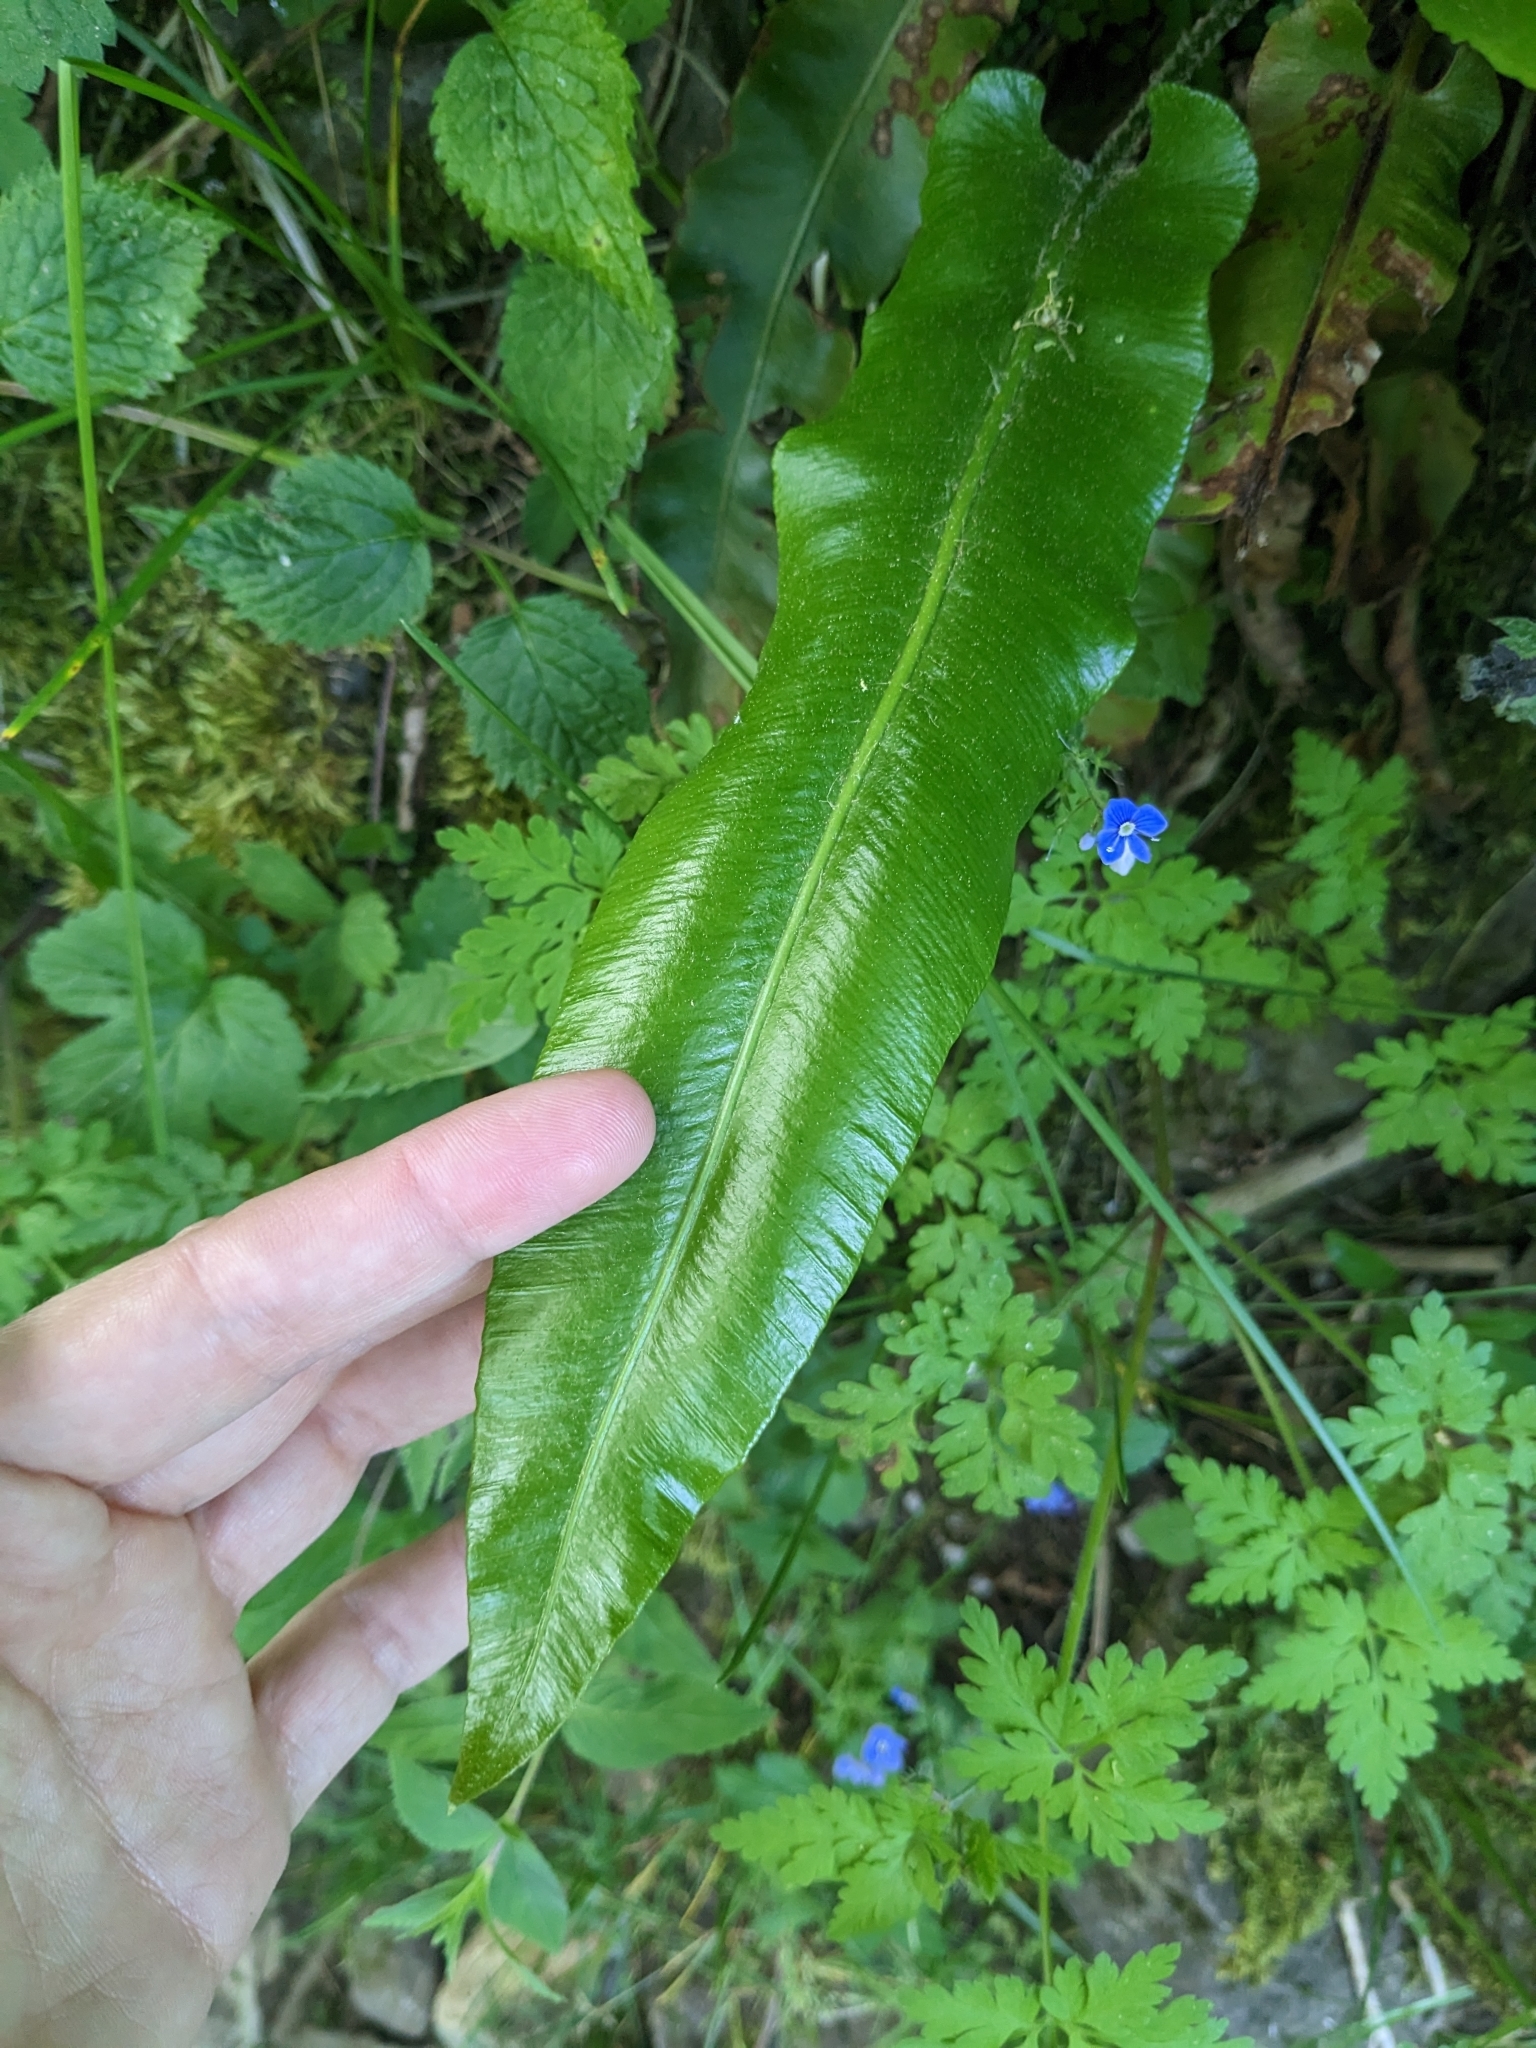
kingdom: Plantae
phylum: Tracheophyta
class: Polypodiopsida
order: Polypodiales
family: Aspleniaceae
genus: Asplenium
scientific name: Asplenium scolopendrium
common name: Hart's-tongue fern
